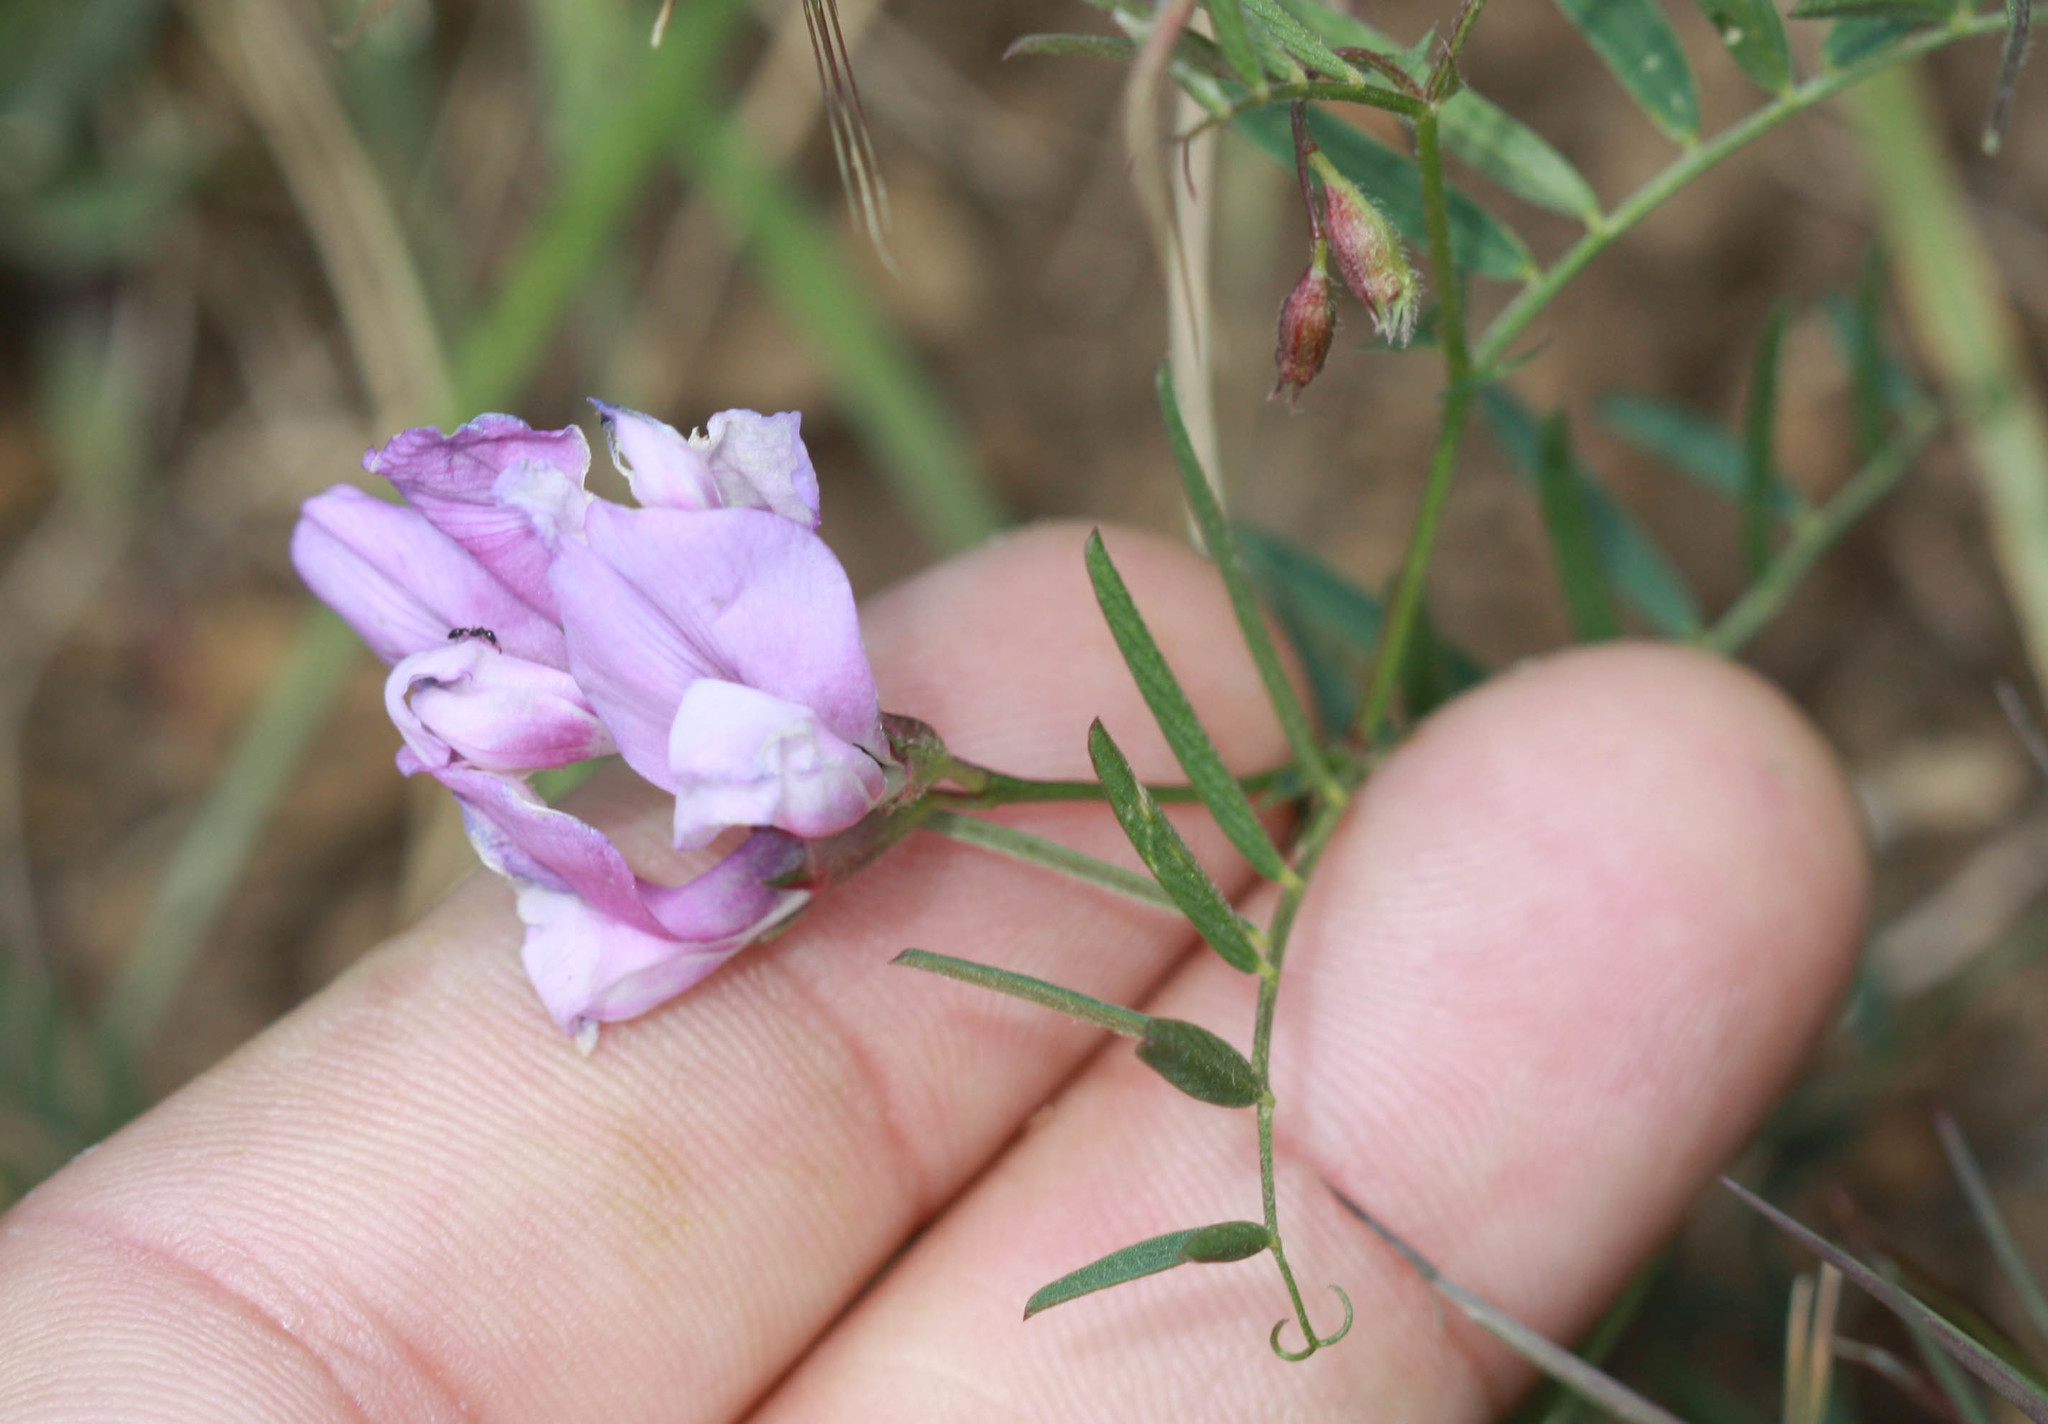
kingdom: Plantae
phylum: Tracheophyta
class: Magnoliopsida
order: Fabales
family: Fabaceae
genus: Vicia
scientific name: Vicia americana
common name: American vetch
